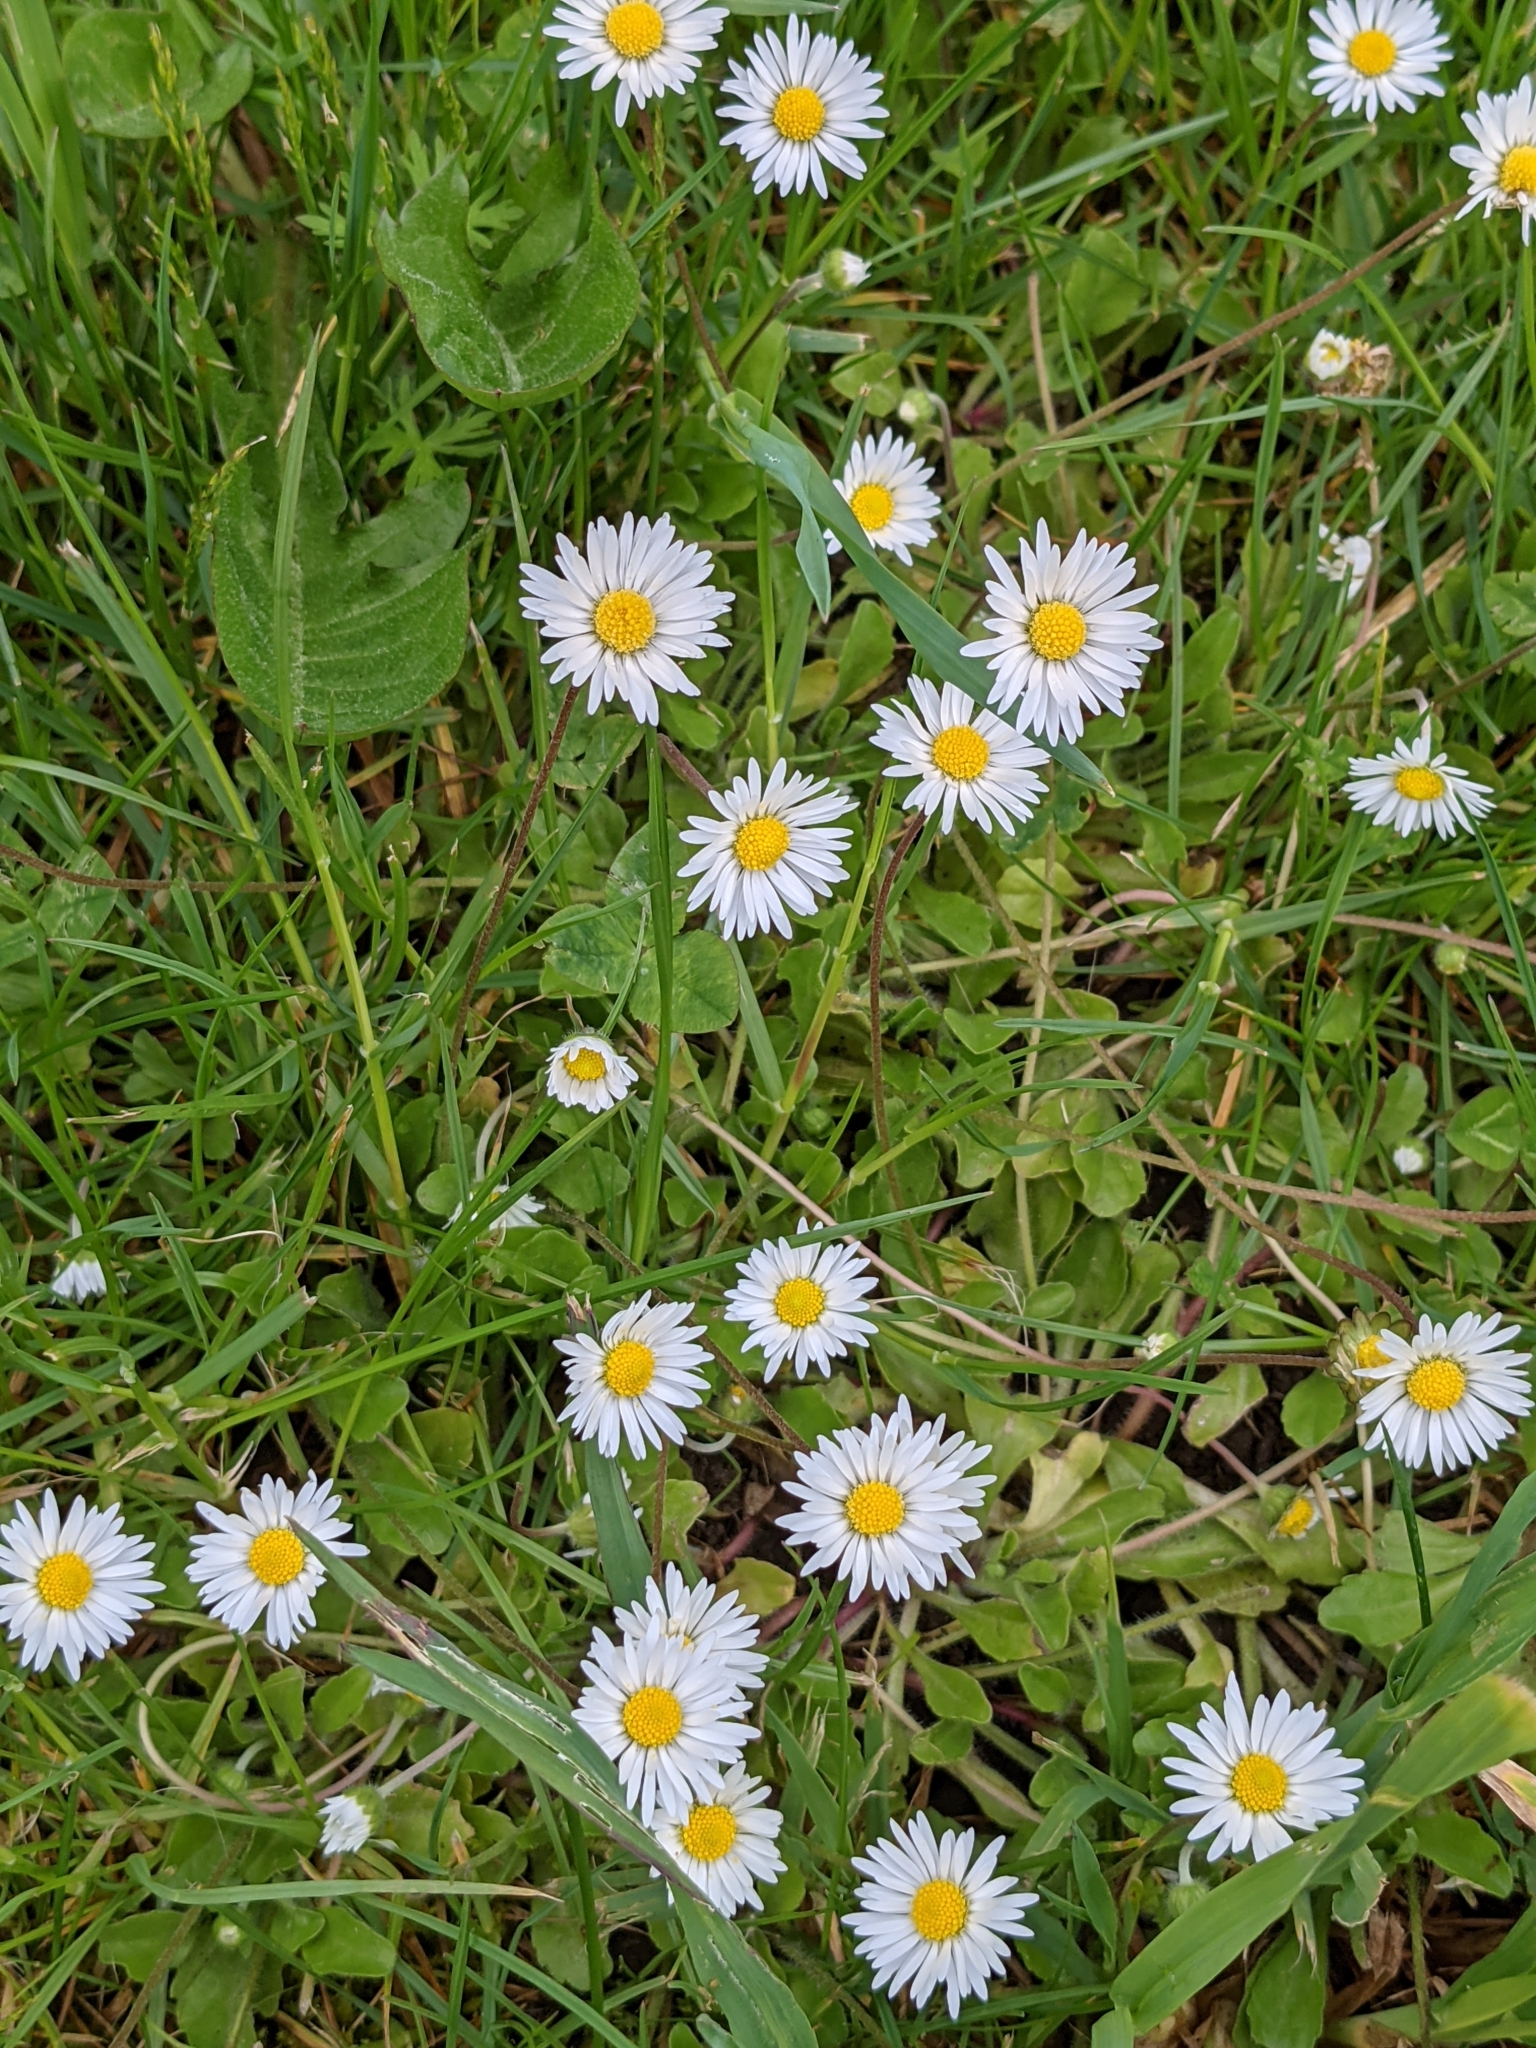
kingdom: Plantae
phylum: Tracheophyta
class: Magnoliopsida
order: Asterales
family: Asteraceae
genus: Bellis
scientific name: Bellis perennis
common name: Lawndaisy
